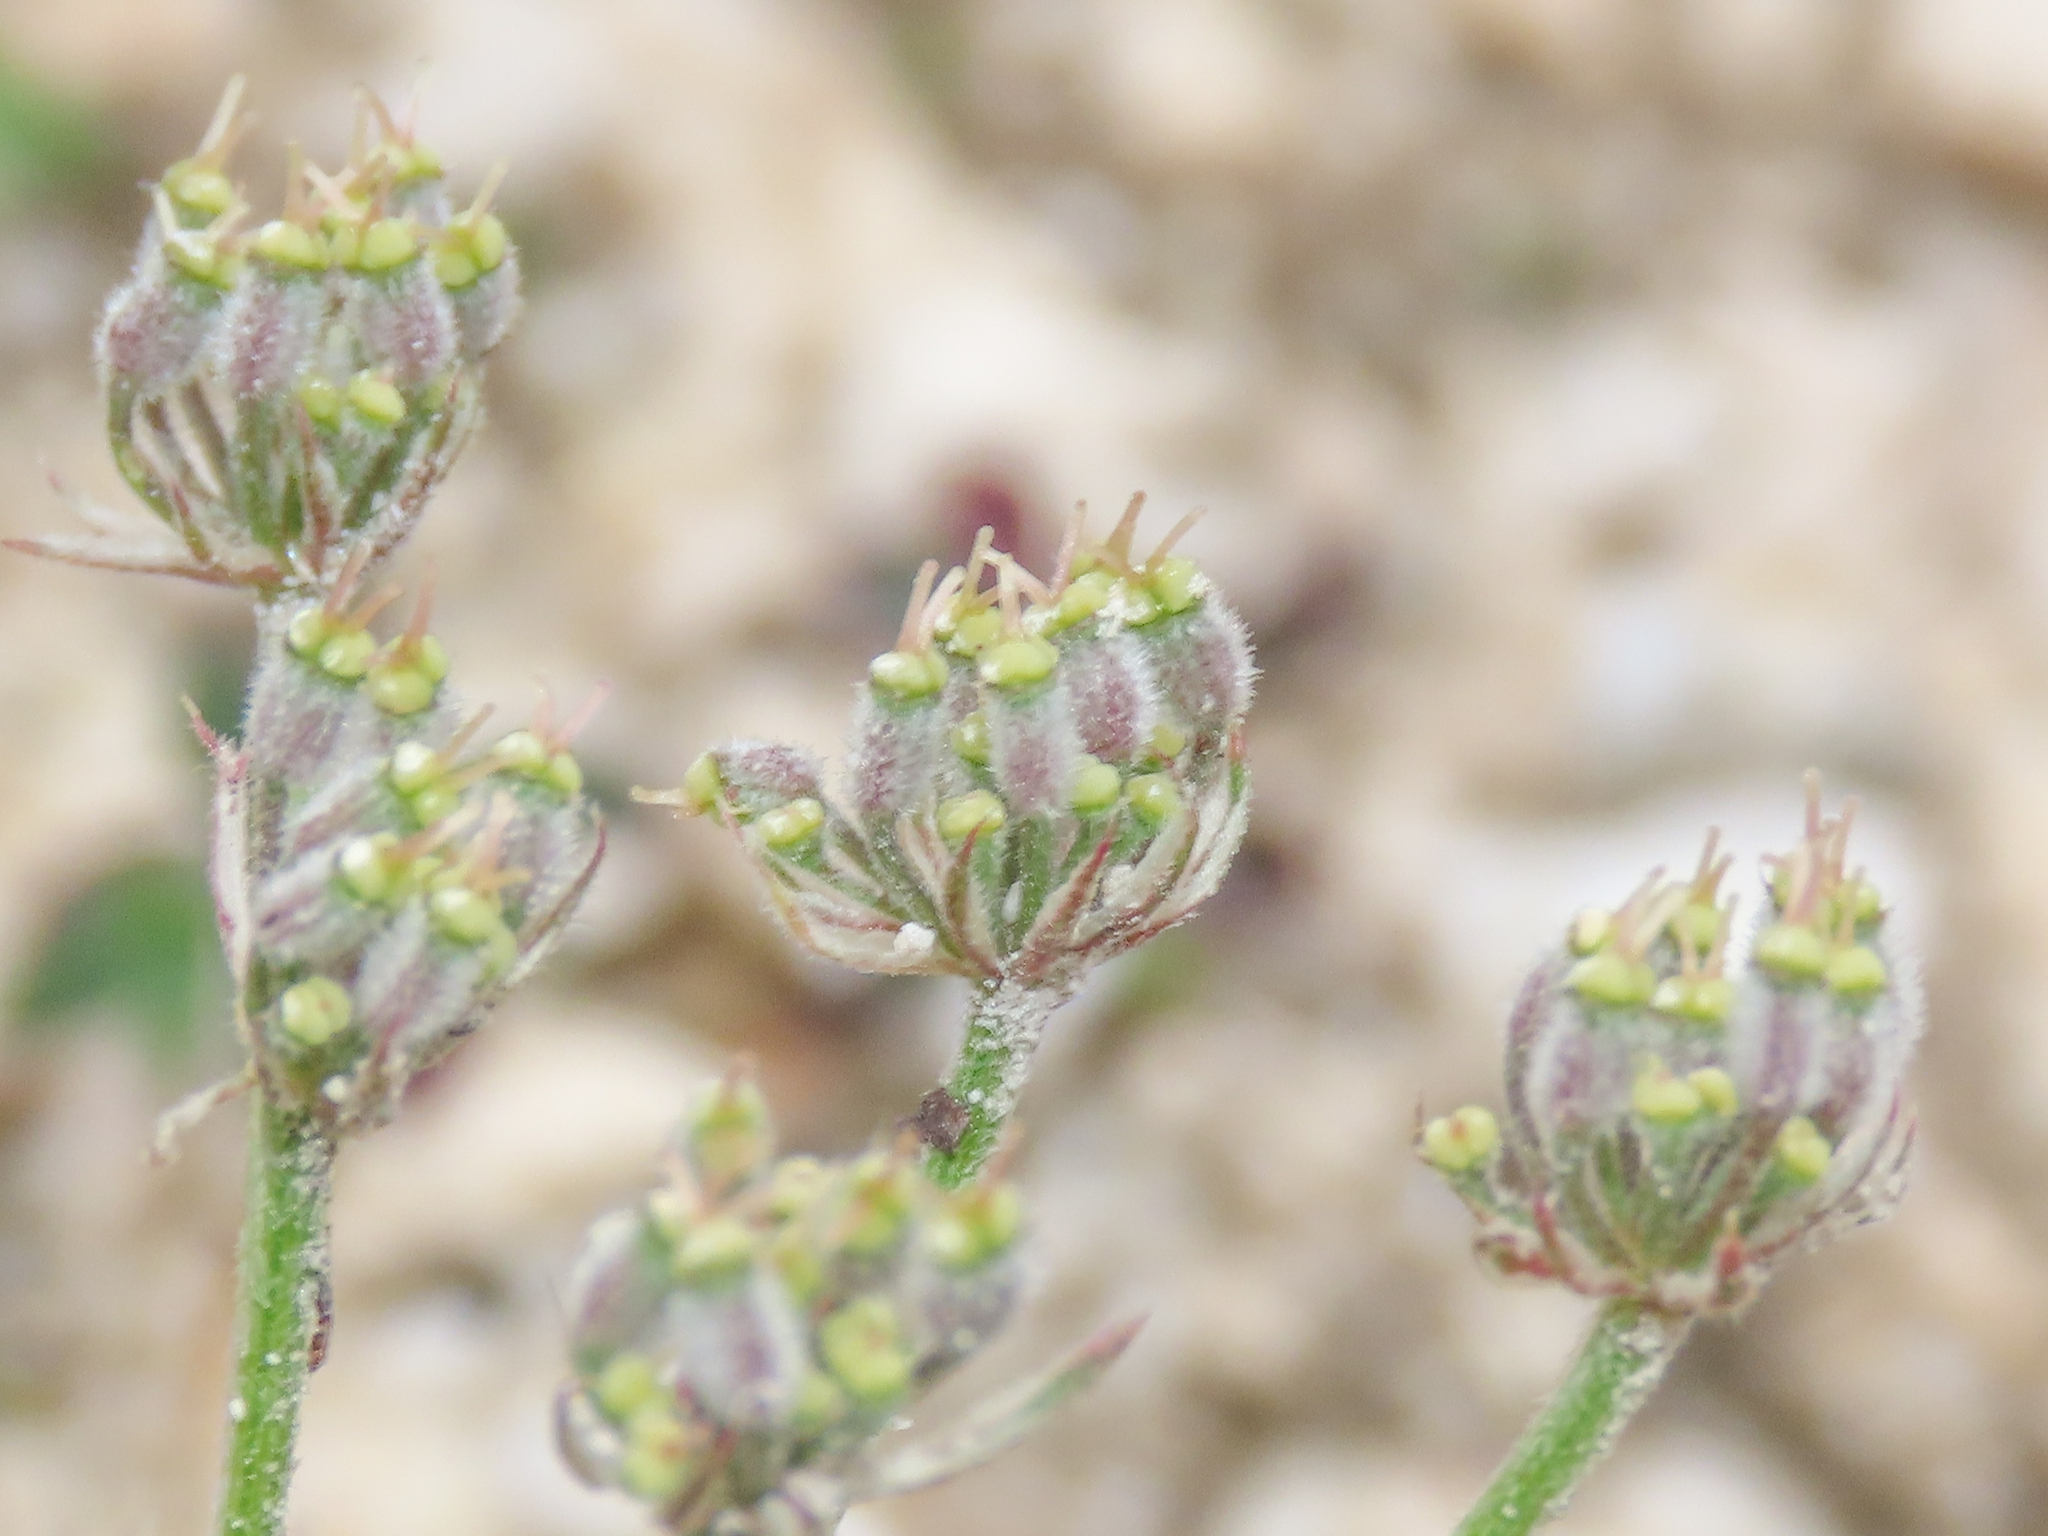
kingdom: Plantae
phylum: Tracheophyta
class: Magnoliopsida
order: Apiales
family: Apiaceae
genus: Athamanta
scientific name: Athamanta cretensis
